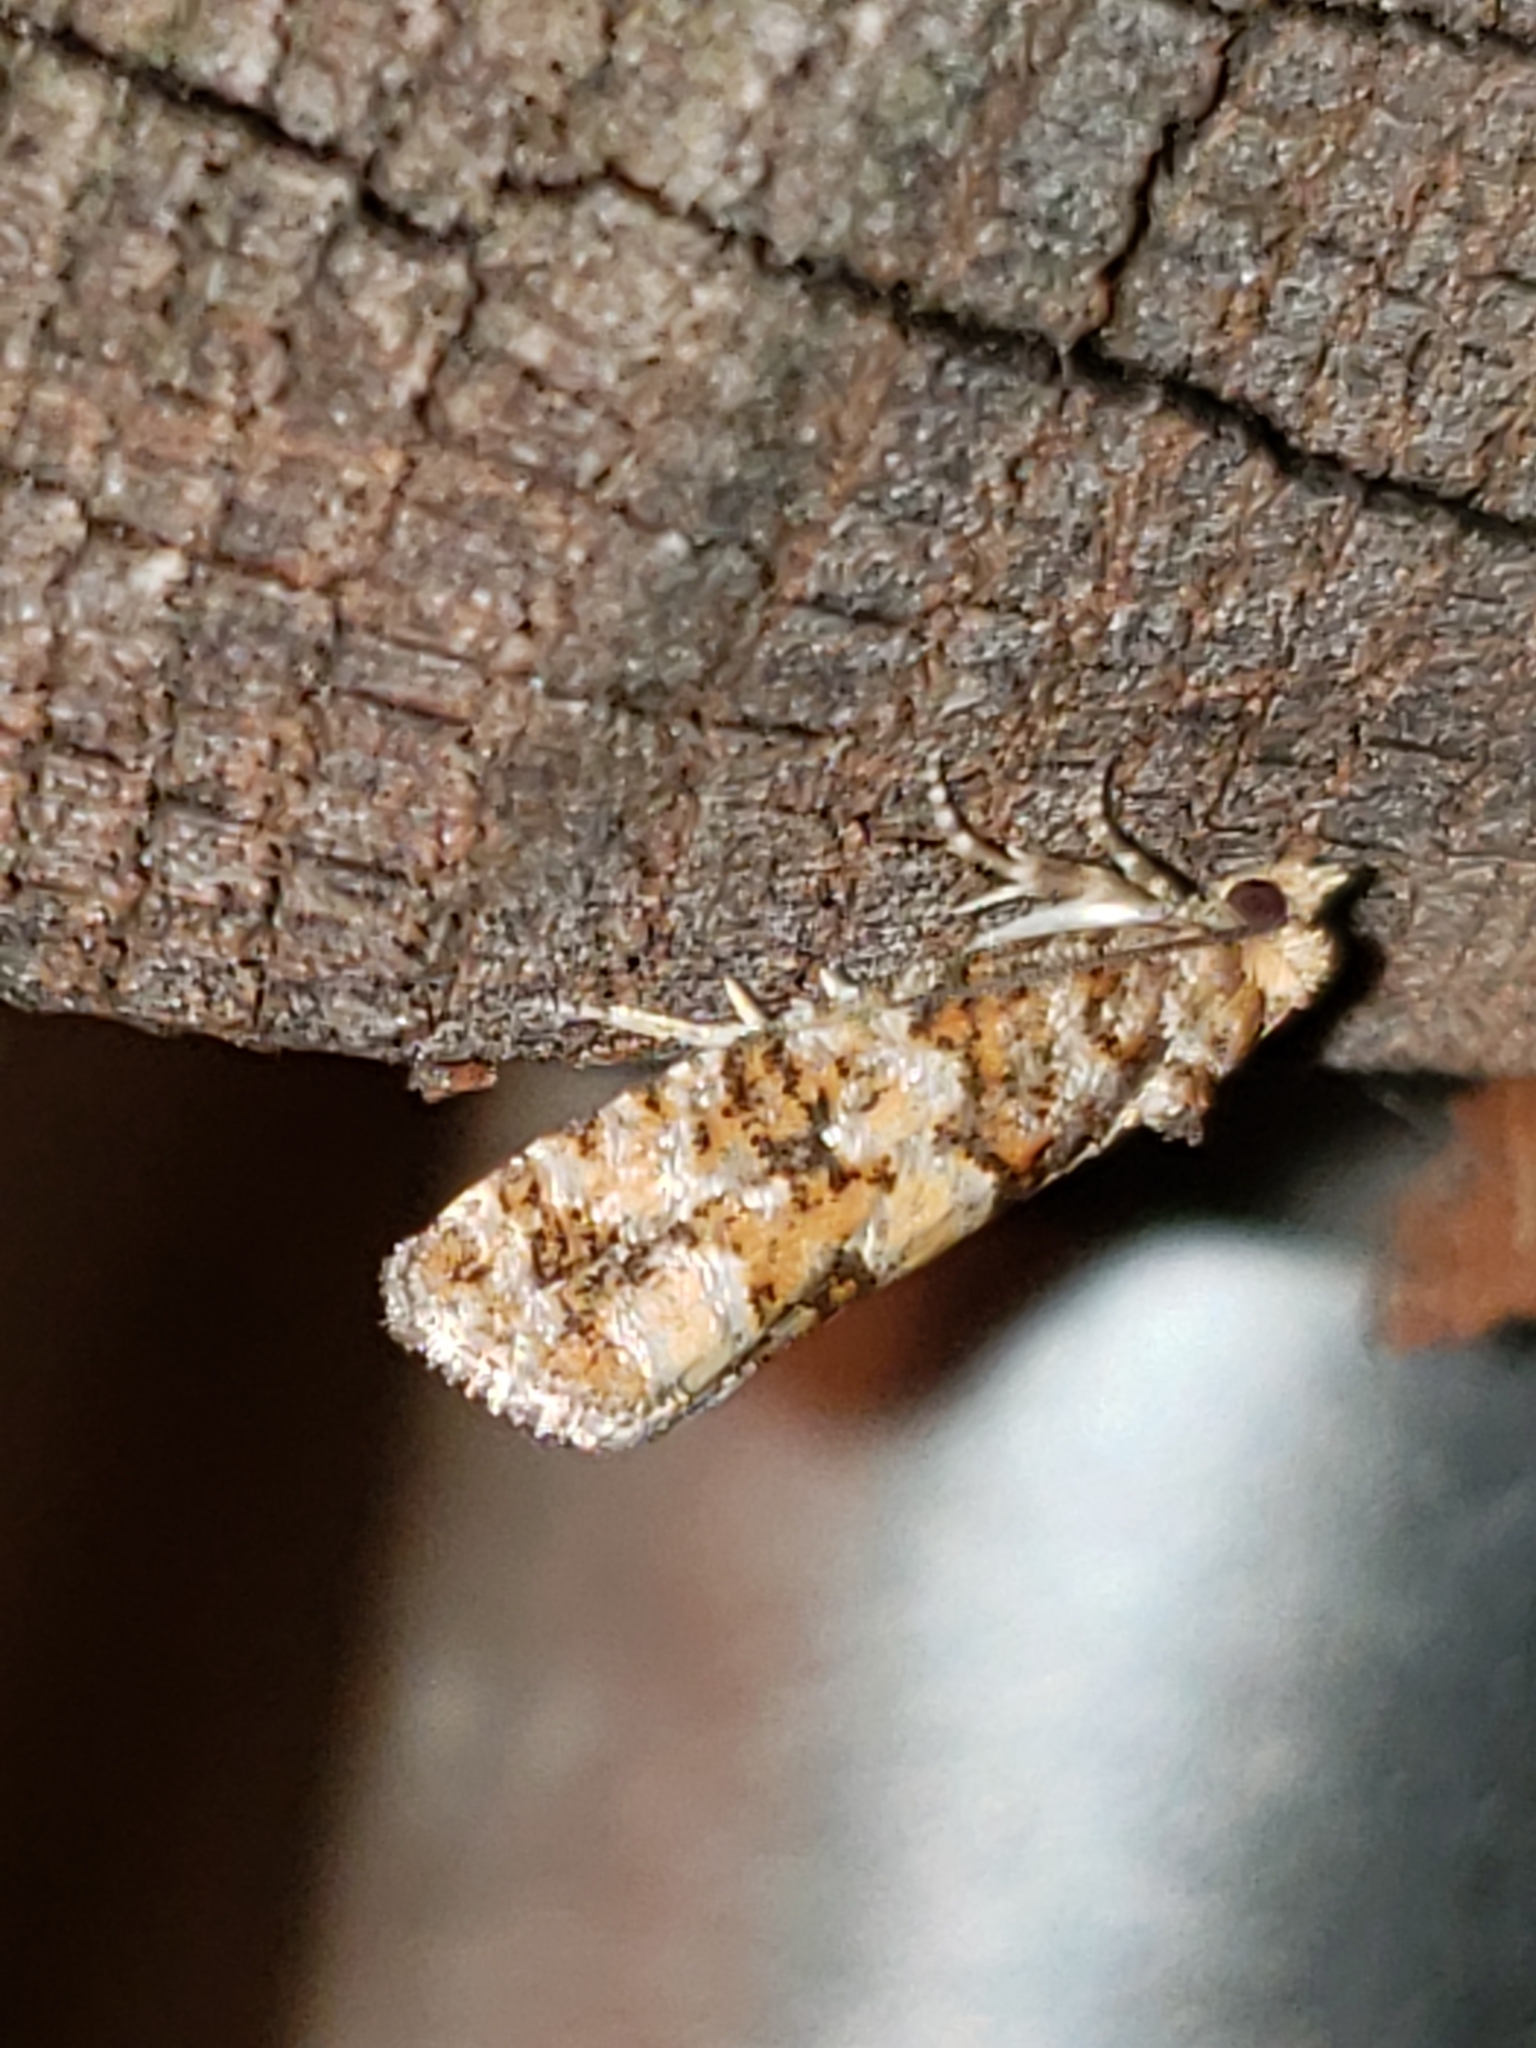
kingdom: Animalia
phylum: Arthropoda
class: Insecta
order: Lepidoptera
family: Tortricidae
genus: Eucopina
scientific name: Eucopina tocullionana
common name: White pinecone borer moth
